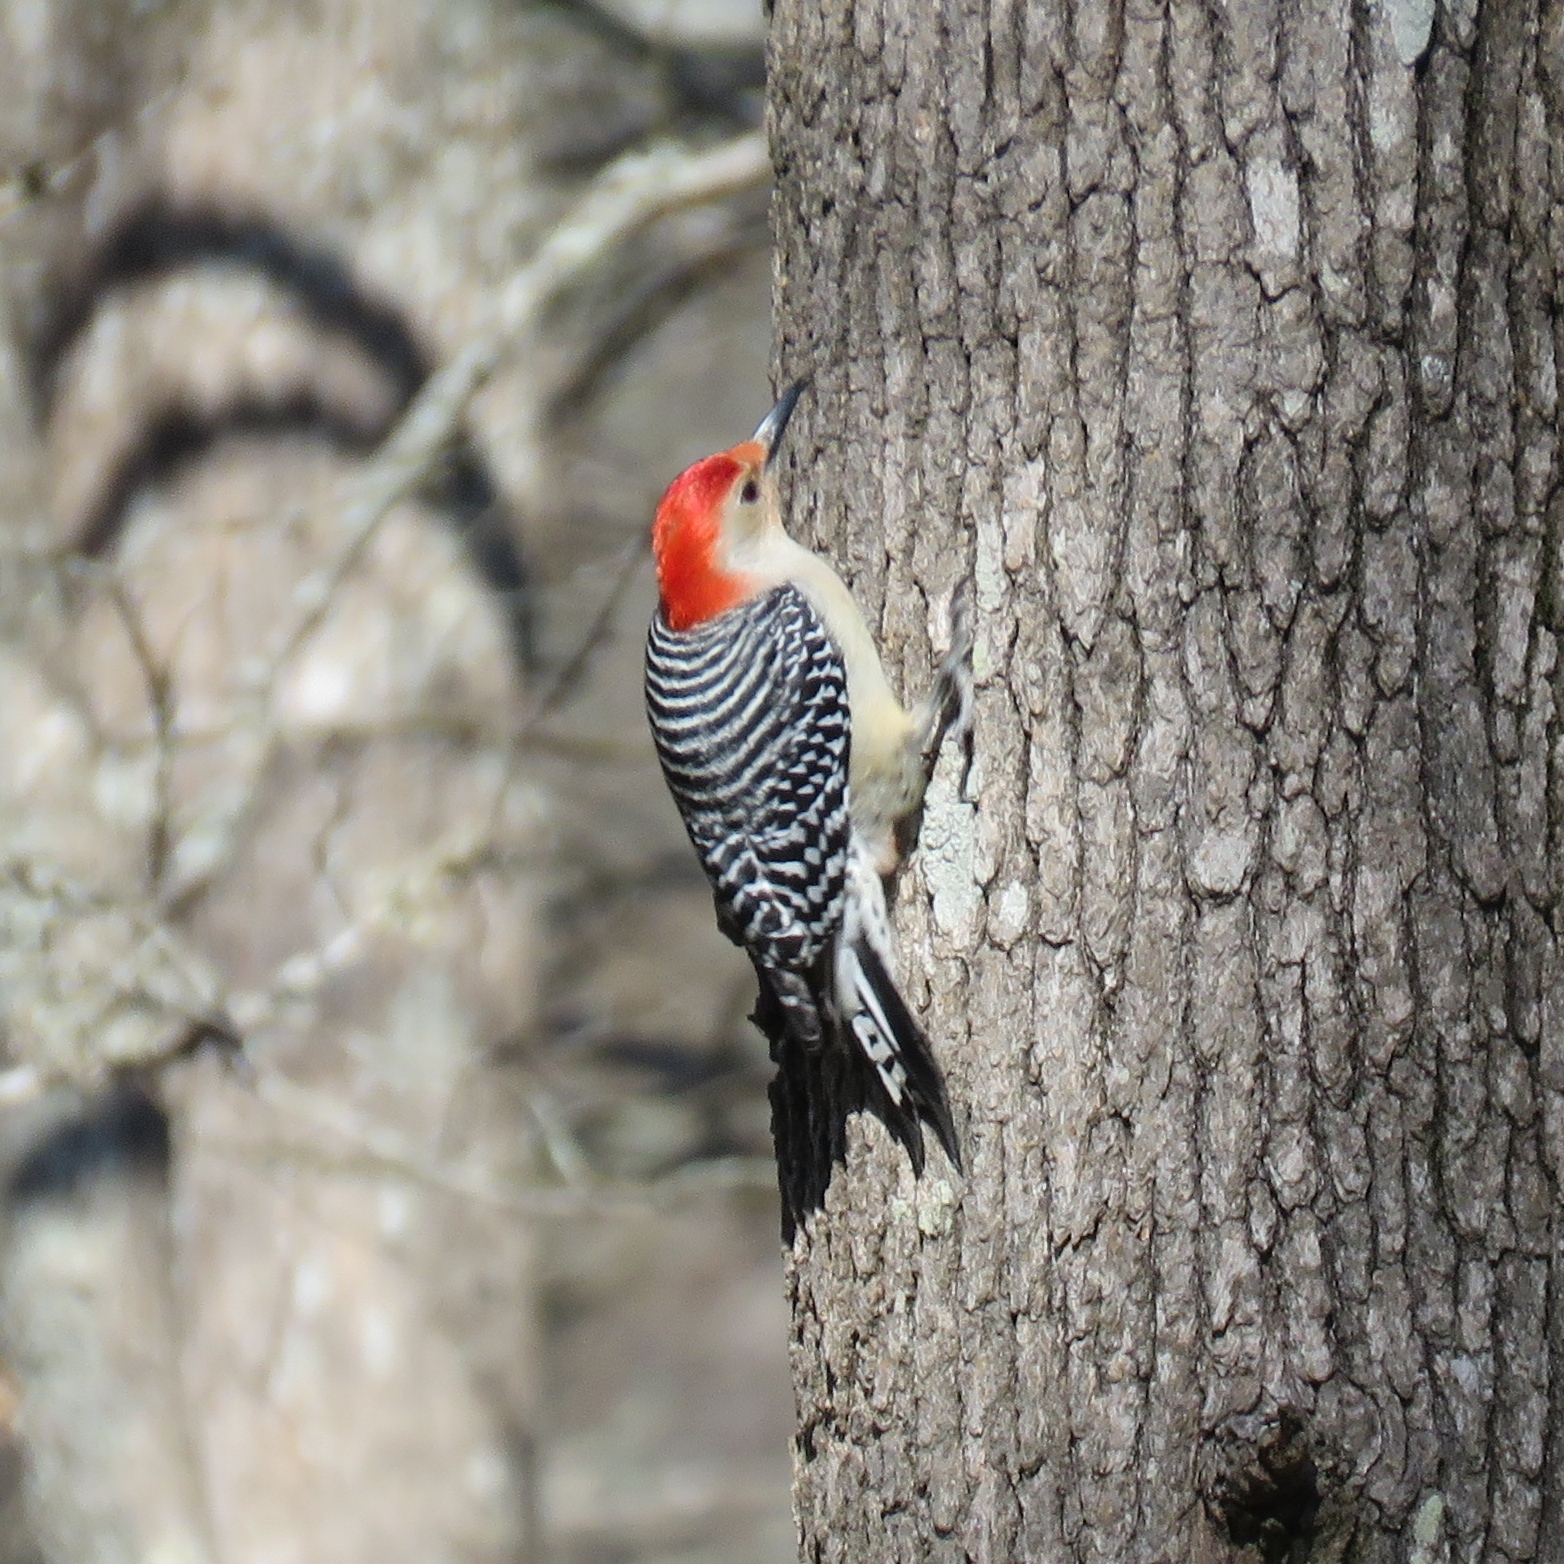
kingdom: Animalia
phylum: Chordata
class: Aves
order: Piciformes
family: Picidae
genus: Melanerpes
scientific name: Melanerpes carolinus
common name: Red-bellied woodpecker
